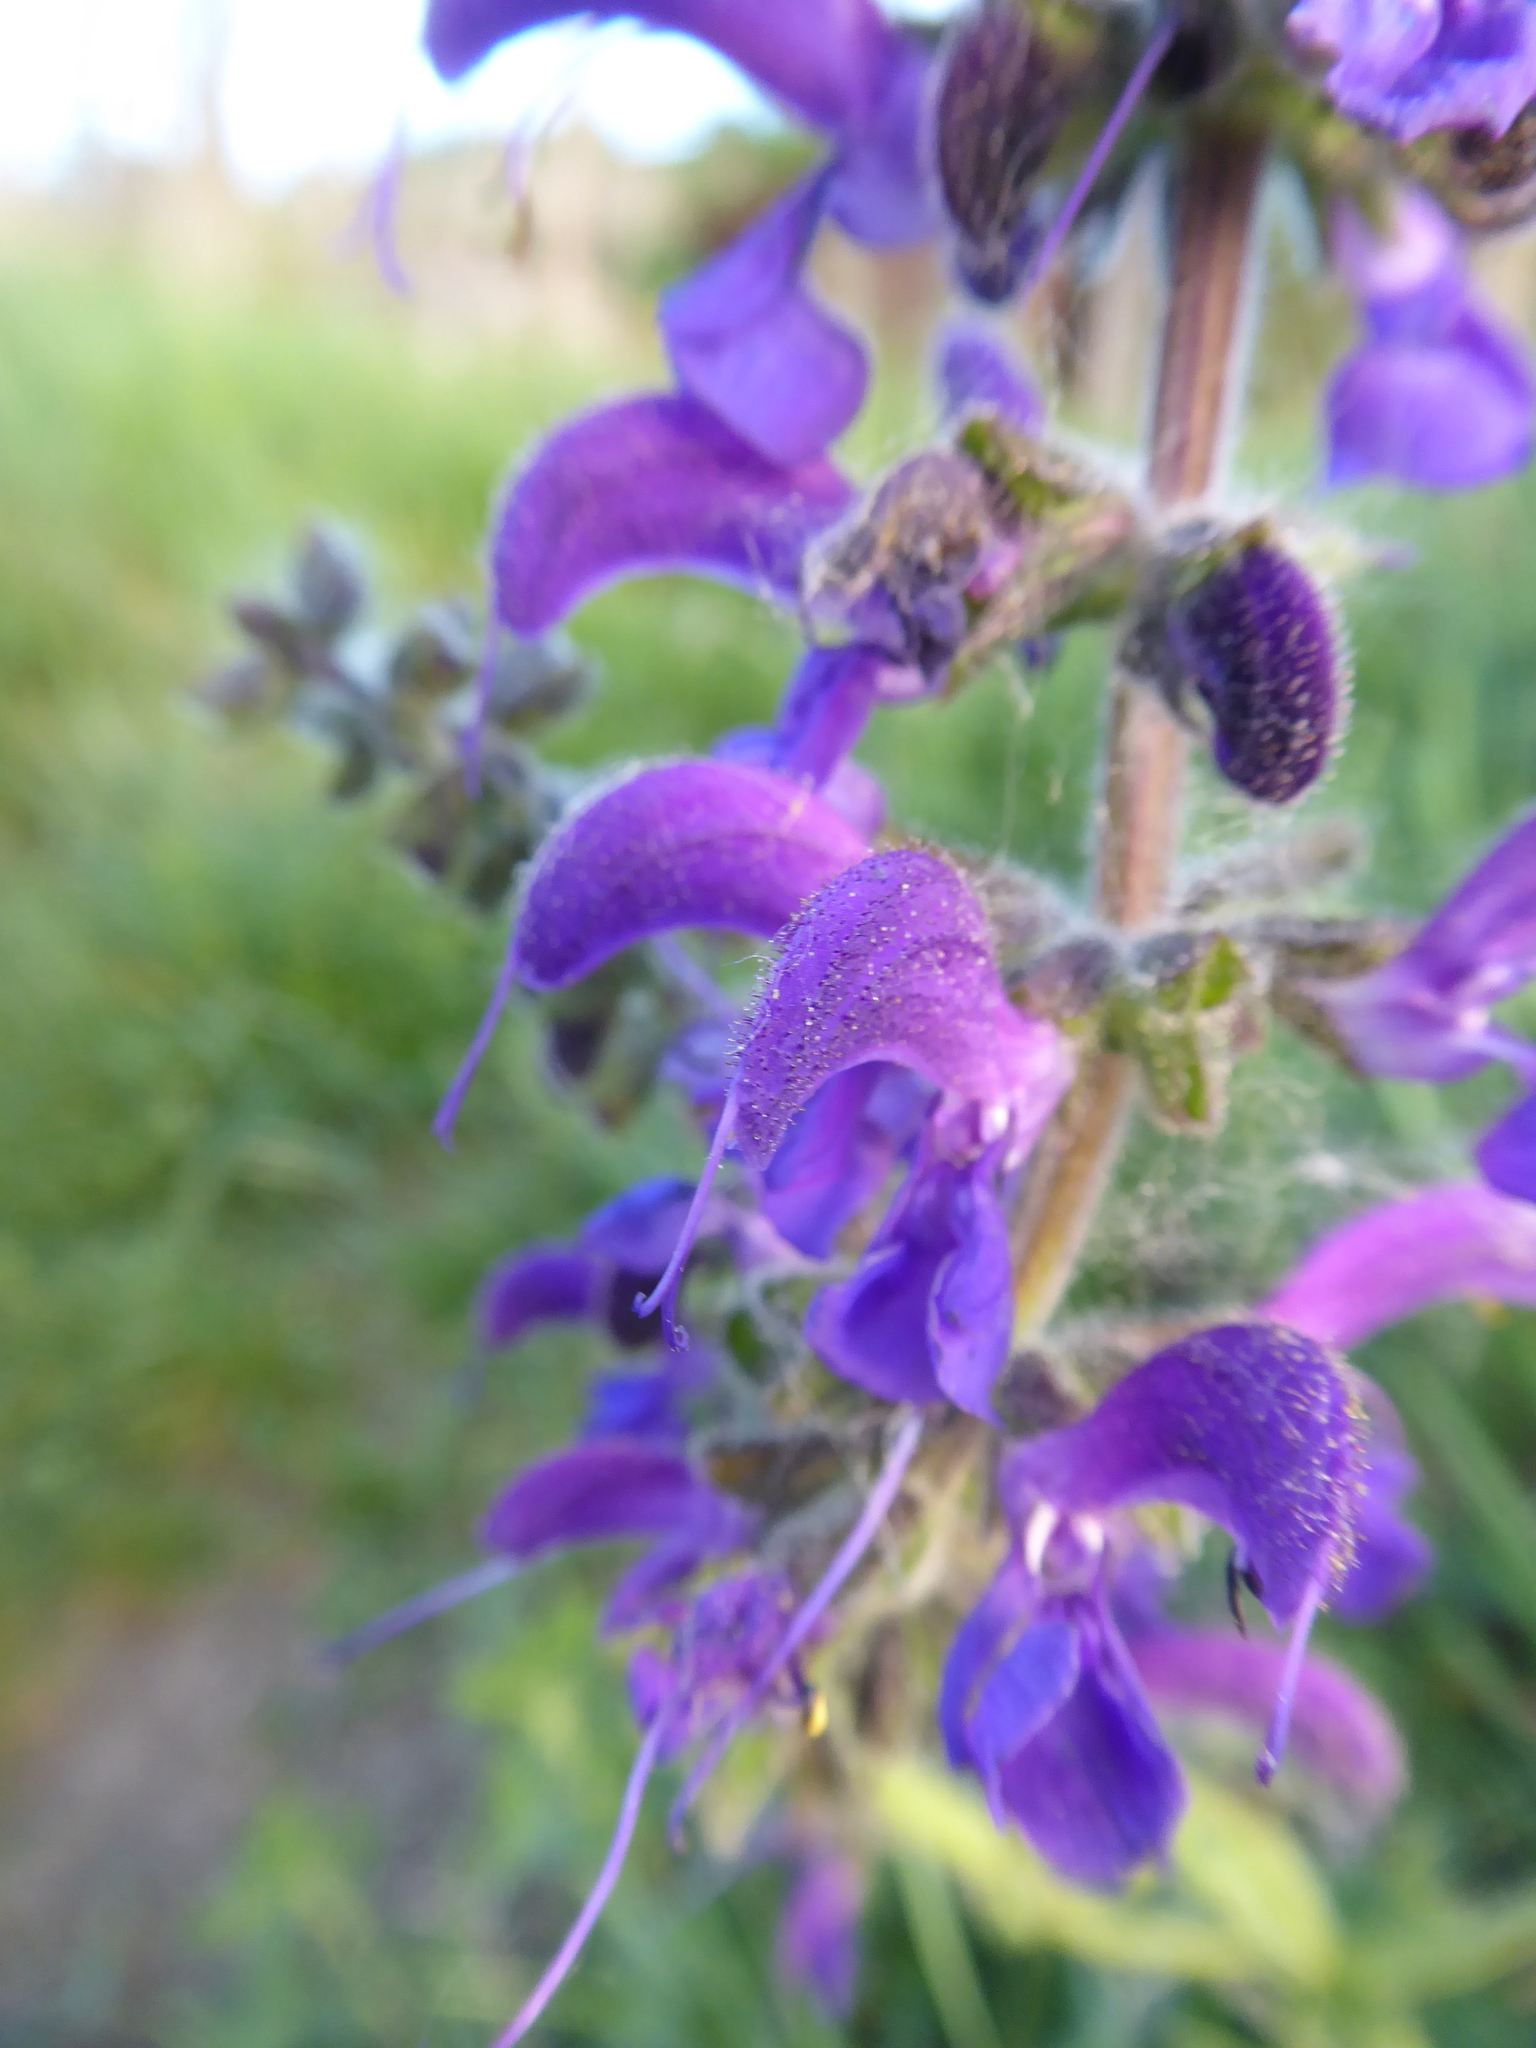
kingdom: Plantae
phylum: Tracheophyta
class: Magnoliopsida
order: Lamiales
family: Lamiaceae
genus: Salvia
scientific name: Salvia pratensis
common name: Meadow sage
